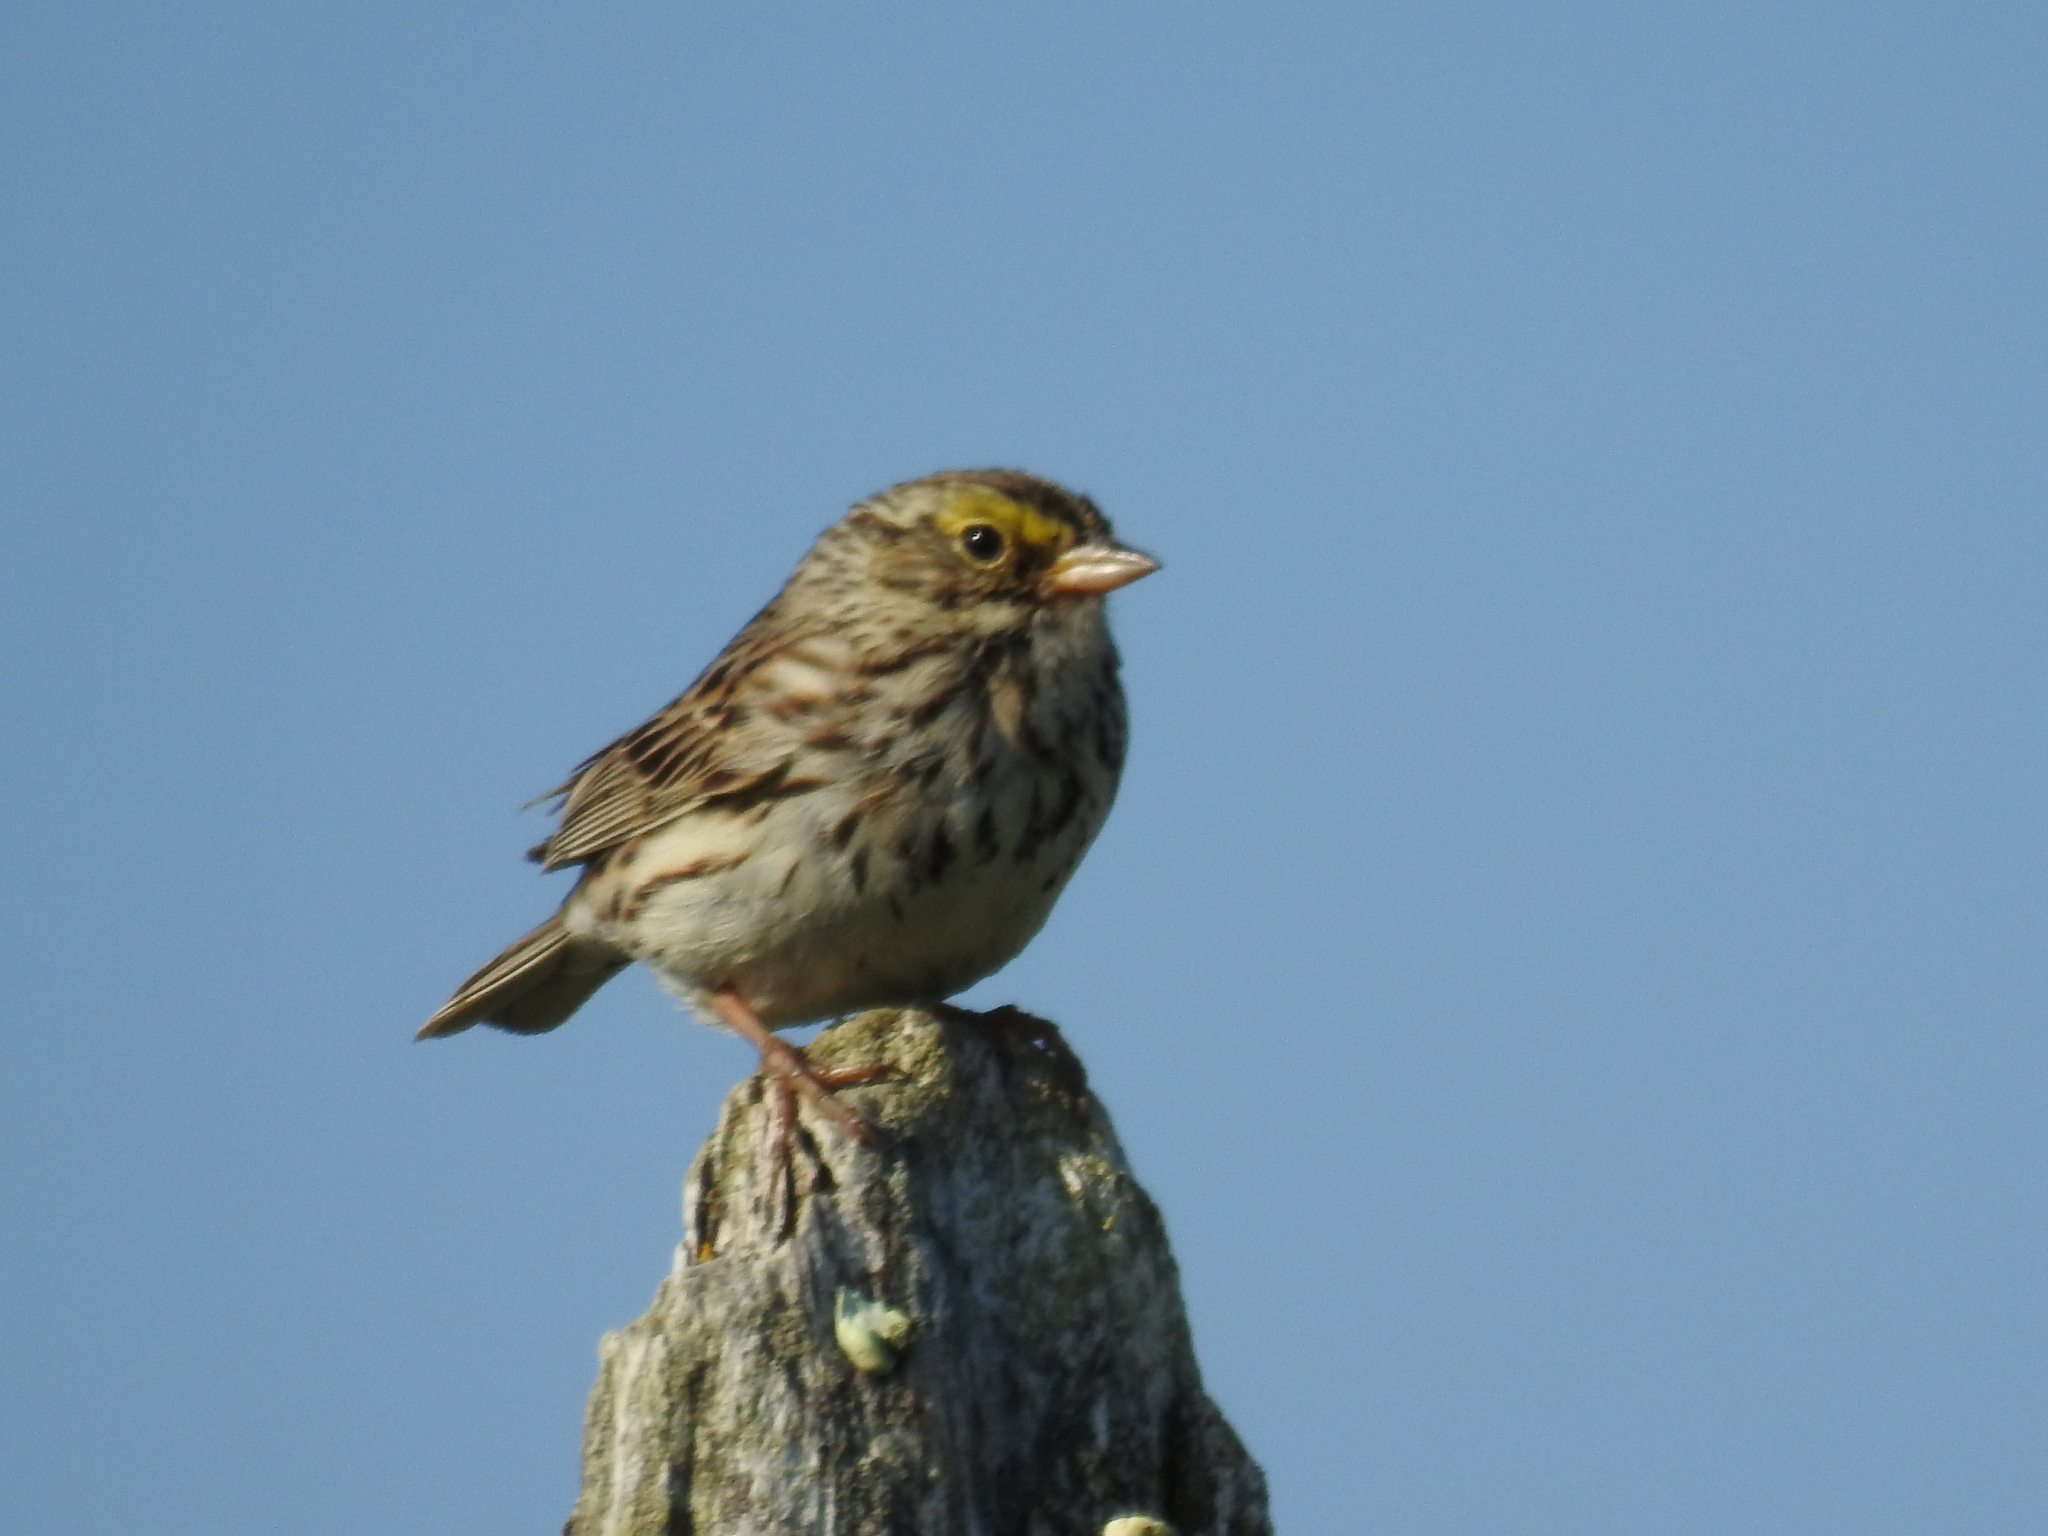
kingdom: Animalia
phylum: Chordata
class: Aves
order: Passeriformes
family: Passerellidae
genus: Passerculus
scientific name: Passerculus sandwichensis
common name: Savannah sparrow
